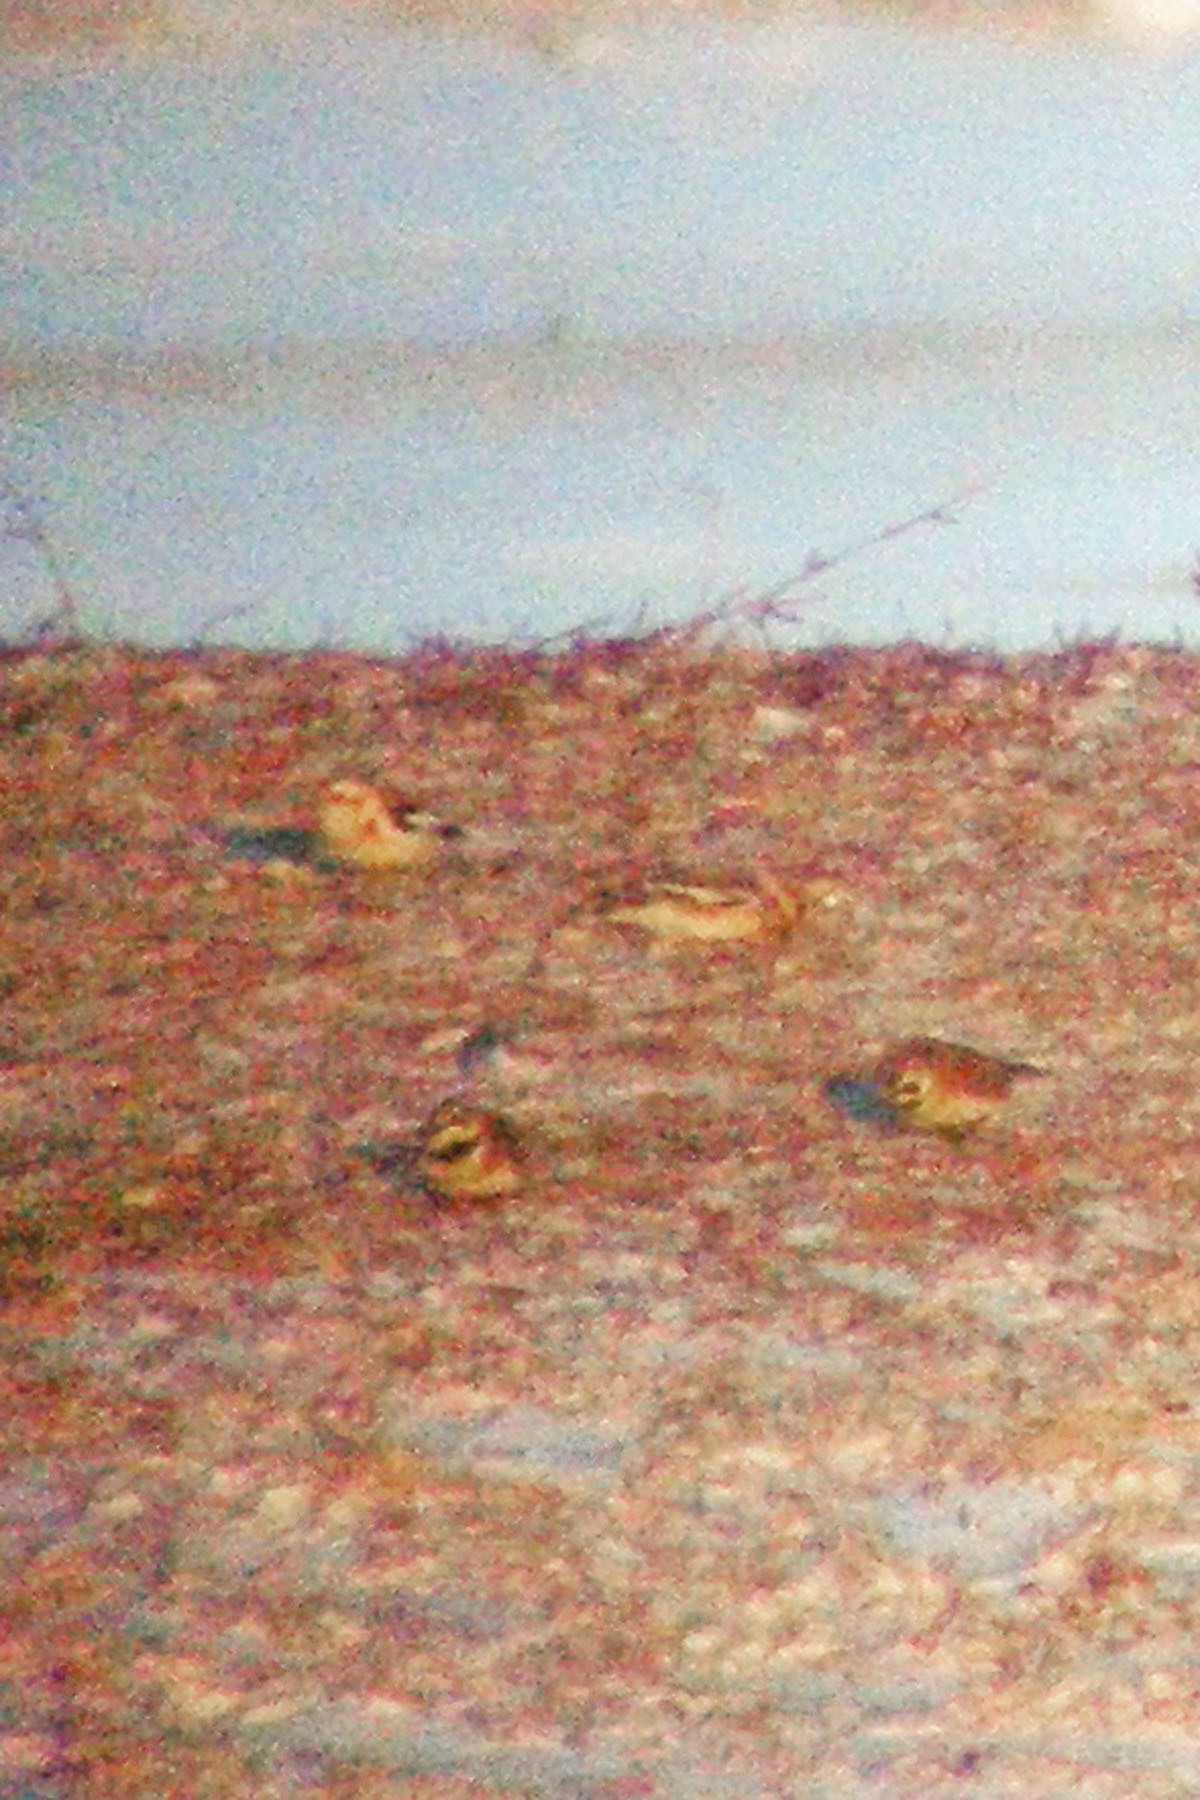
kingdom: Animalia
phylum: Chordata
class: Aves
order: Passeriformes
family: Calcariidae
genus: Plectrophenax
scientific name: Plectrophenax nivalis
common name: Snow bunting
